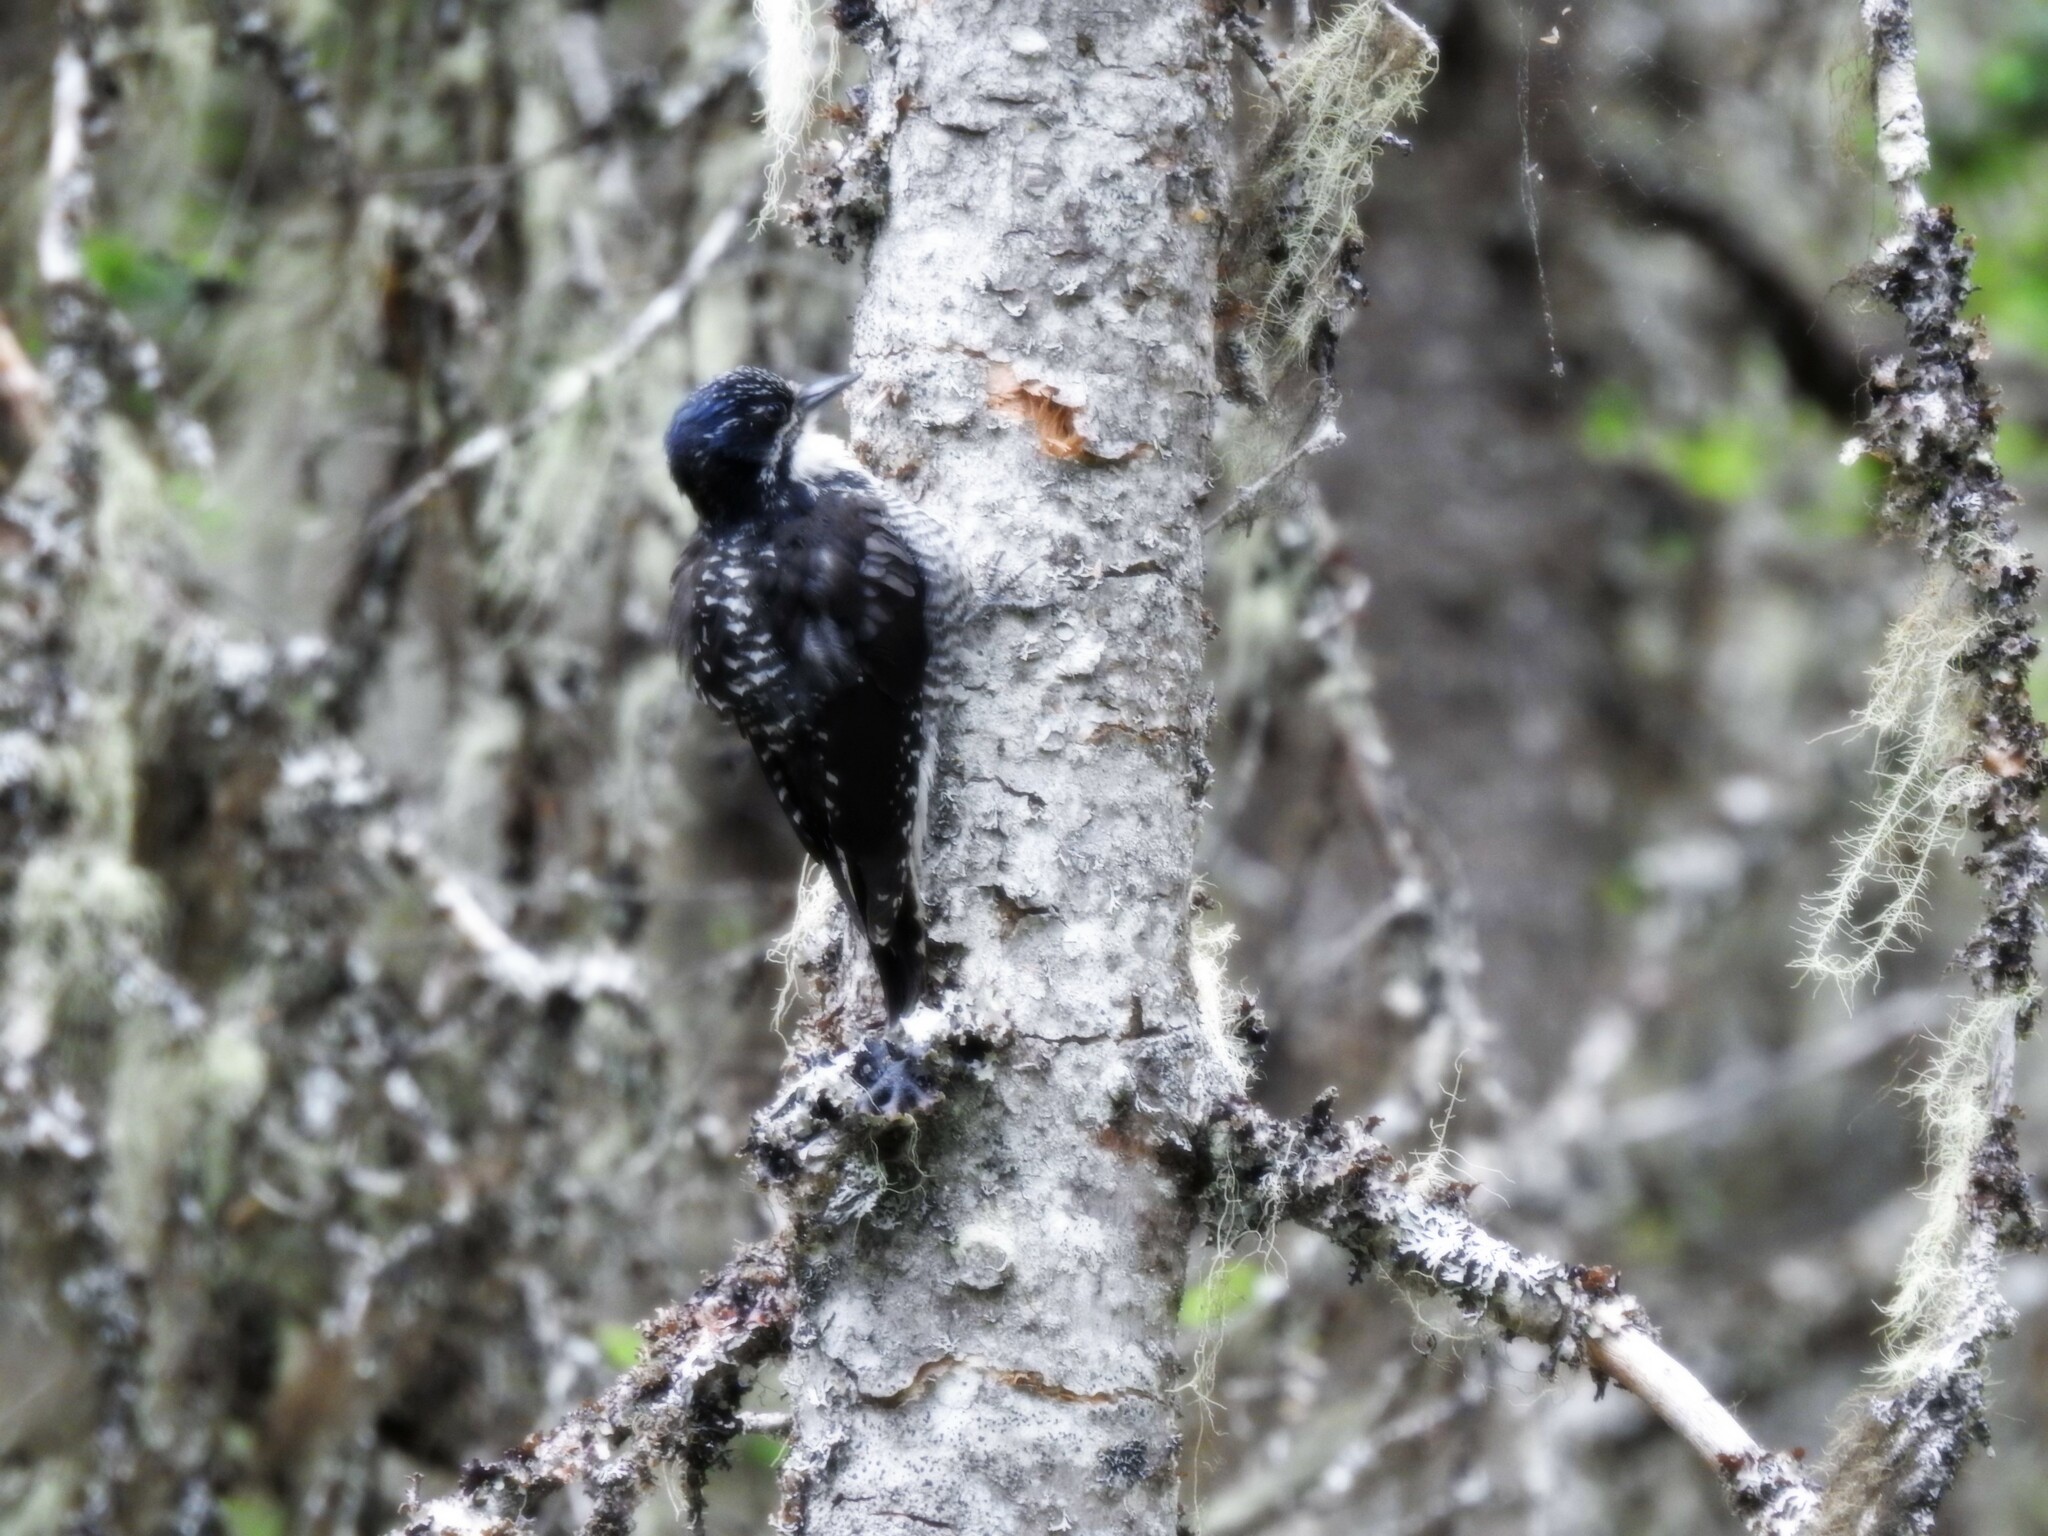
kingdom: Animalia
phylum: Chordata
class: Aves
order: Piciformes
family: Picidae
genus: Picoides
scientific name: Picoides dorsalis
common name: American three-toed woodpecker
